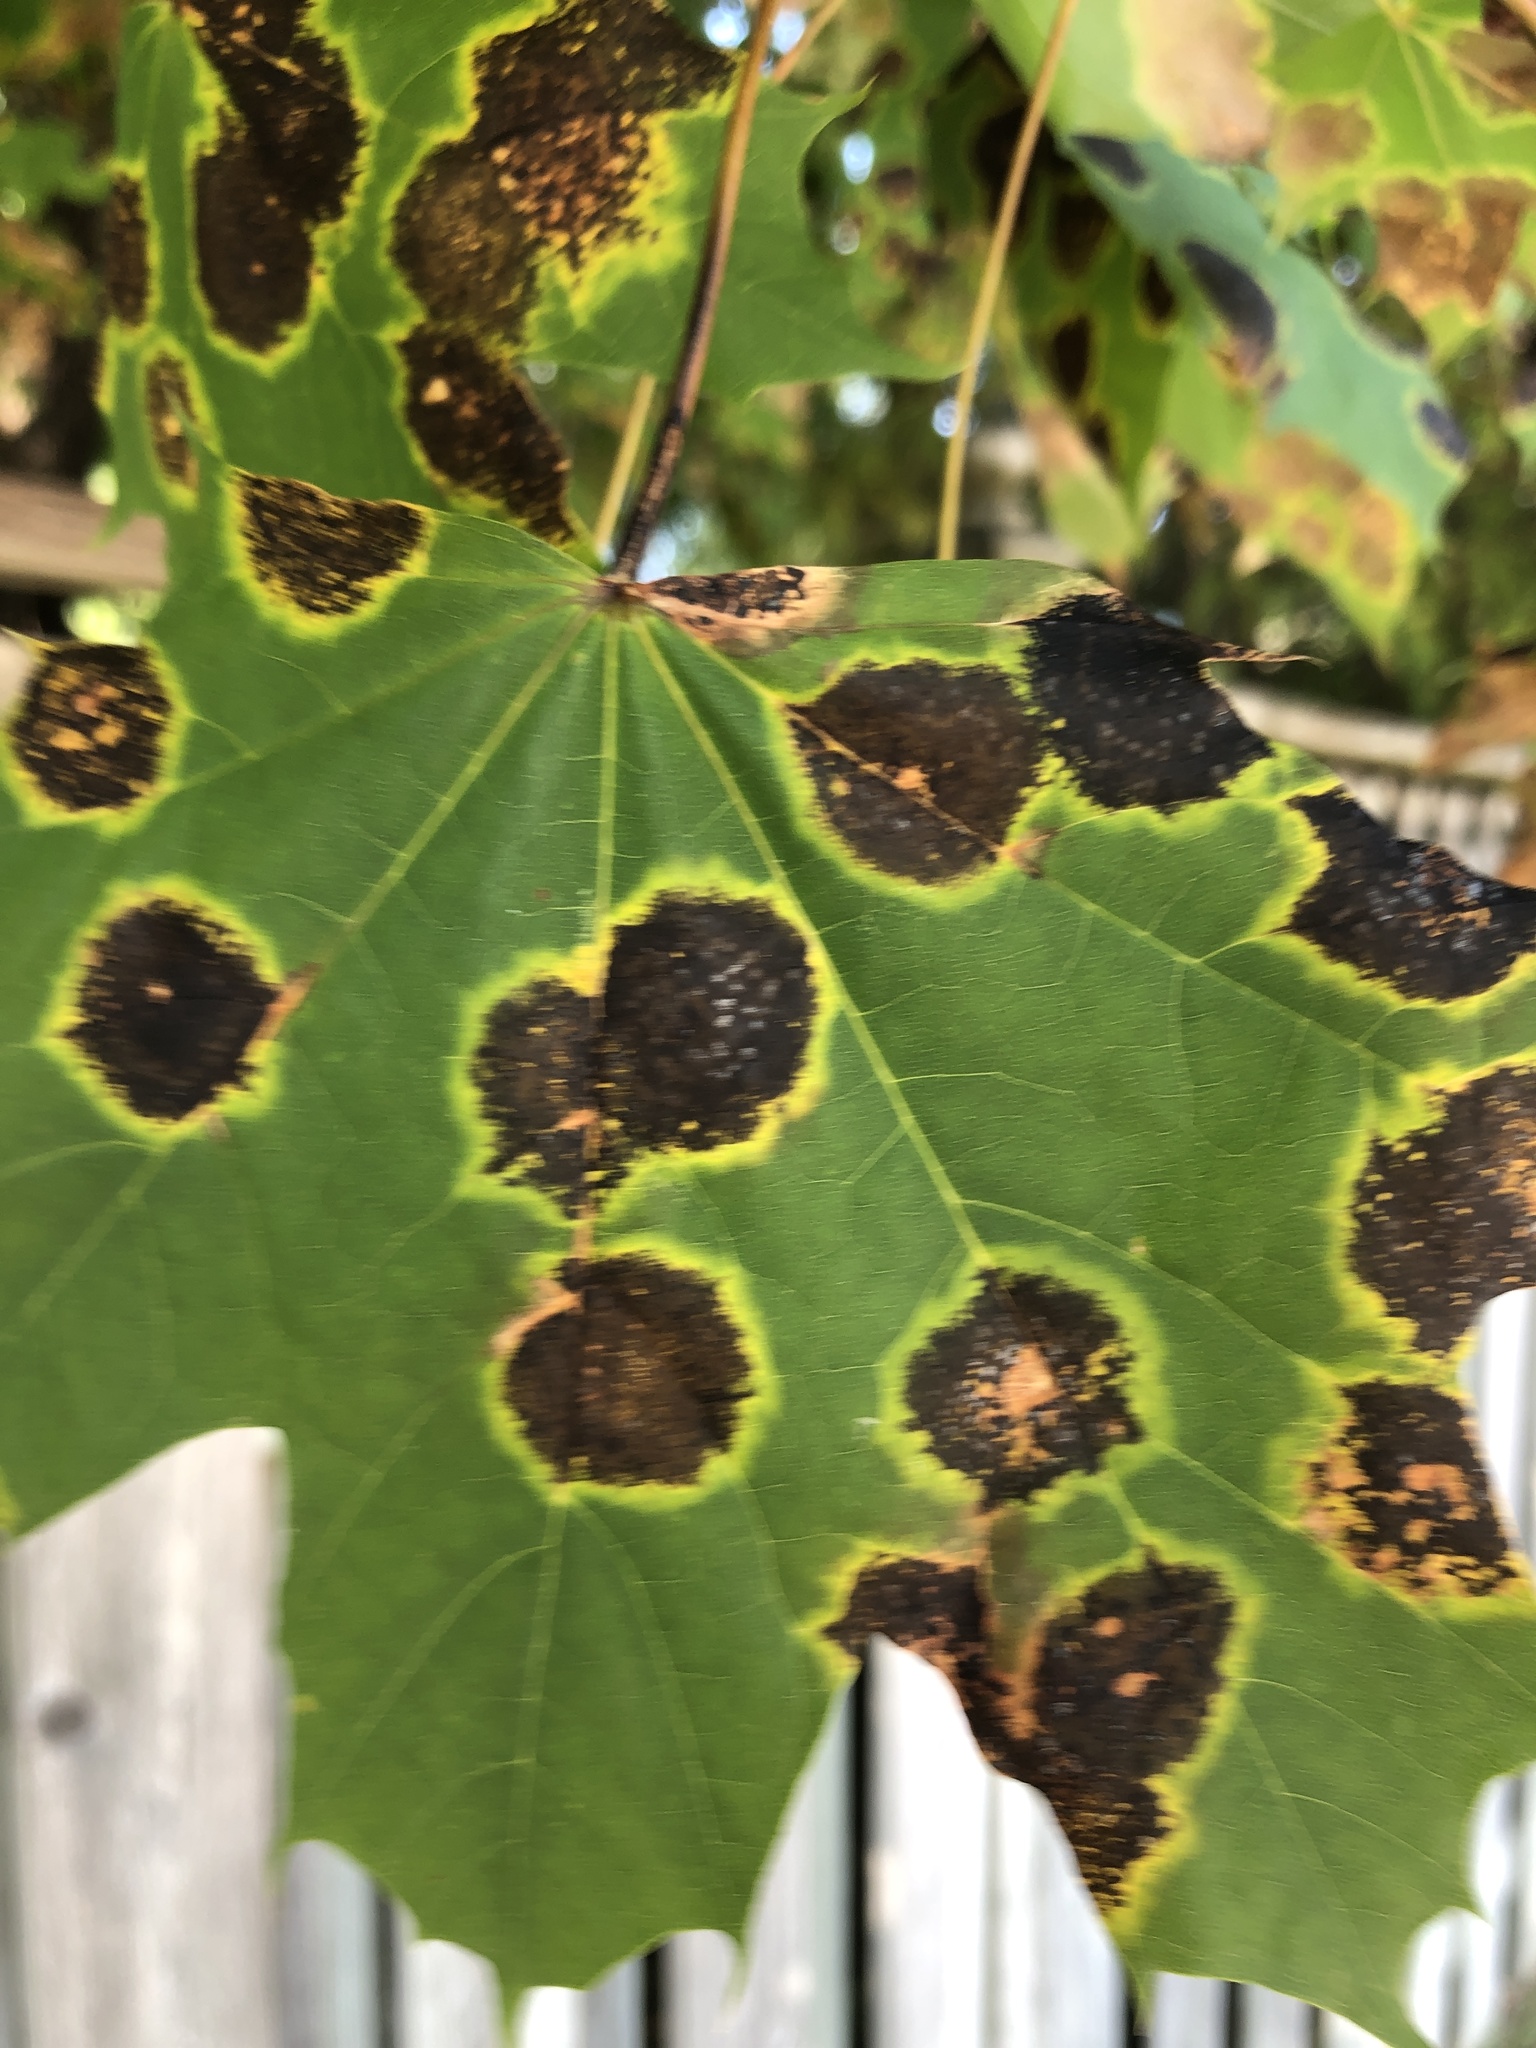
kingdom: Fungi
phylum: Ascomycota
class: Leotiomycetes
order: Rhytismatales
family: Rhytismataceae
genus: Rhytisma
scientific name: Rhytisma acerinum
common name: European tar spot
